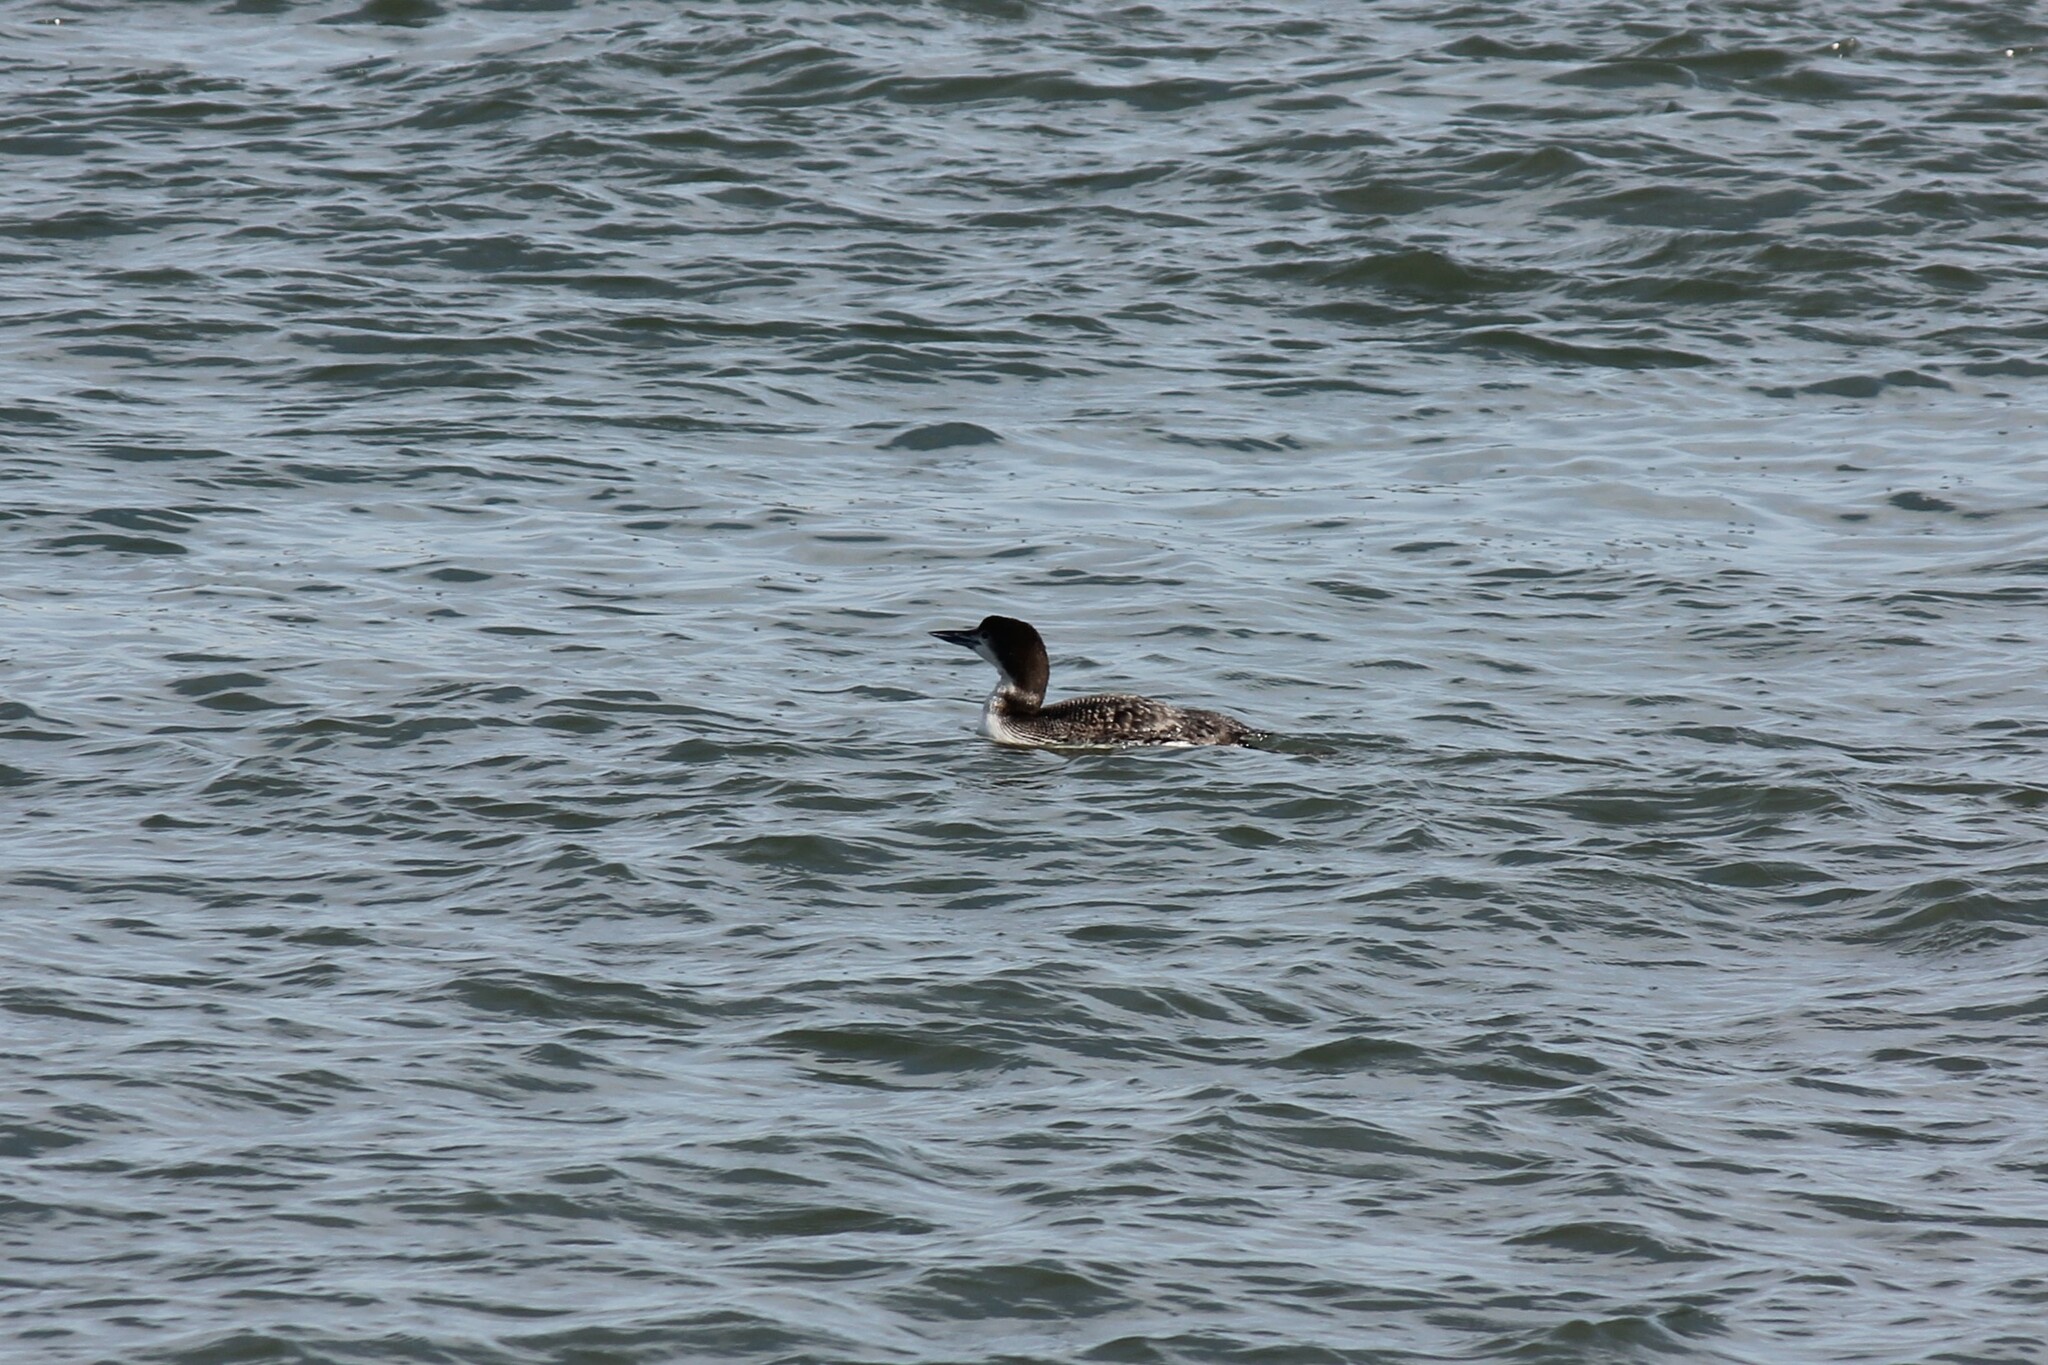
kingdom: Animalia
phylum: Chordata
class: Aves
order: Gaviiformes
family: Gaviidae
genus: Gavia
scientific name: Gavia immer
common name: Common loon
